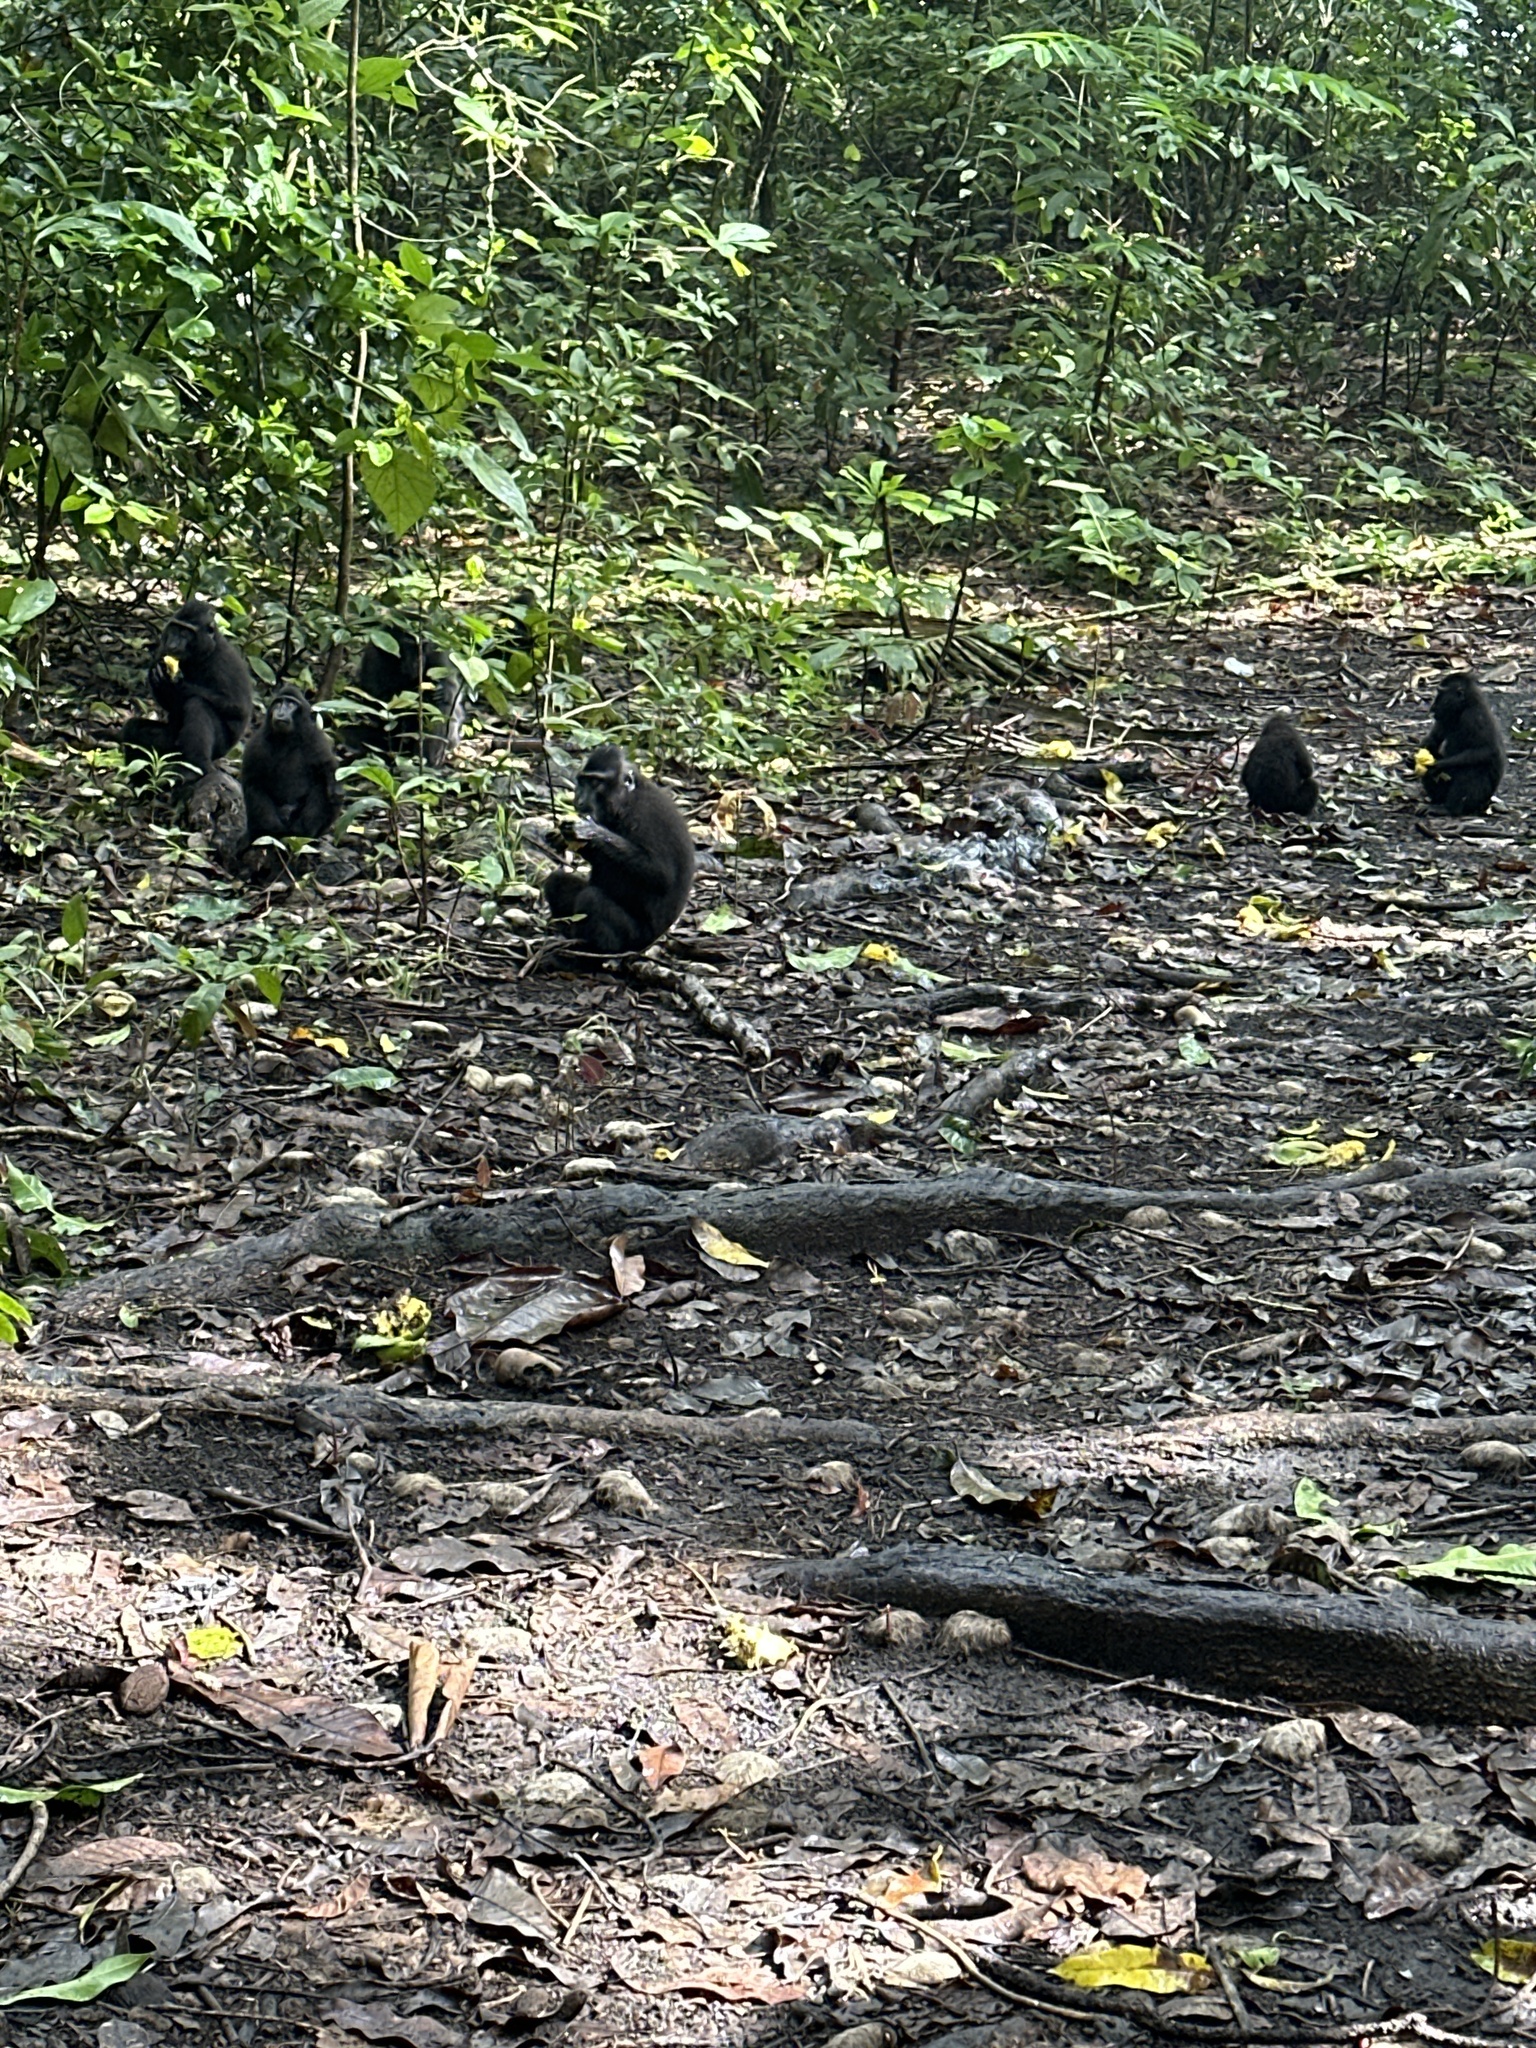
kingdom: Animalia
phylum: Chordata
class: Mammalia
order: Primates
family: Cercopithecidae
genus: Macaca
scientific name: Macaca nigra
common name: Celebes crested macaque
